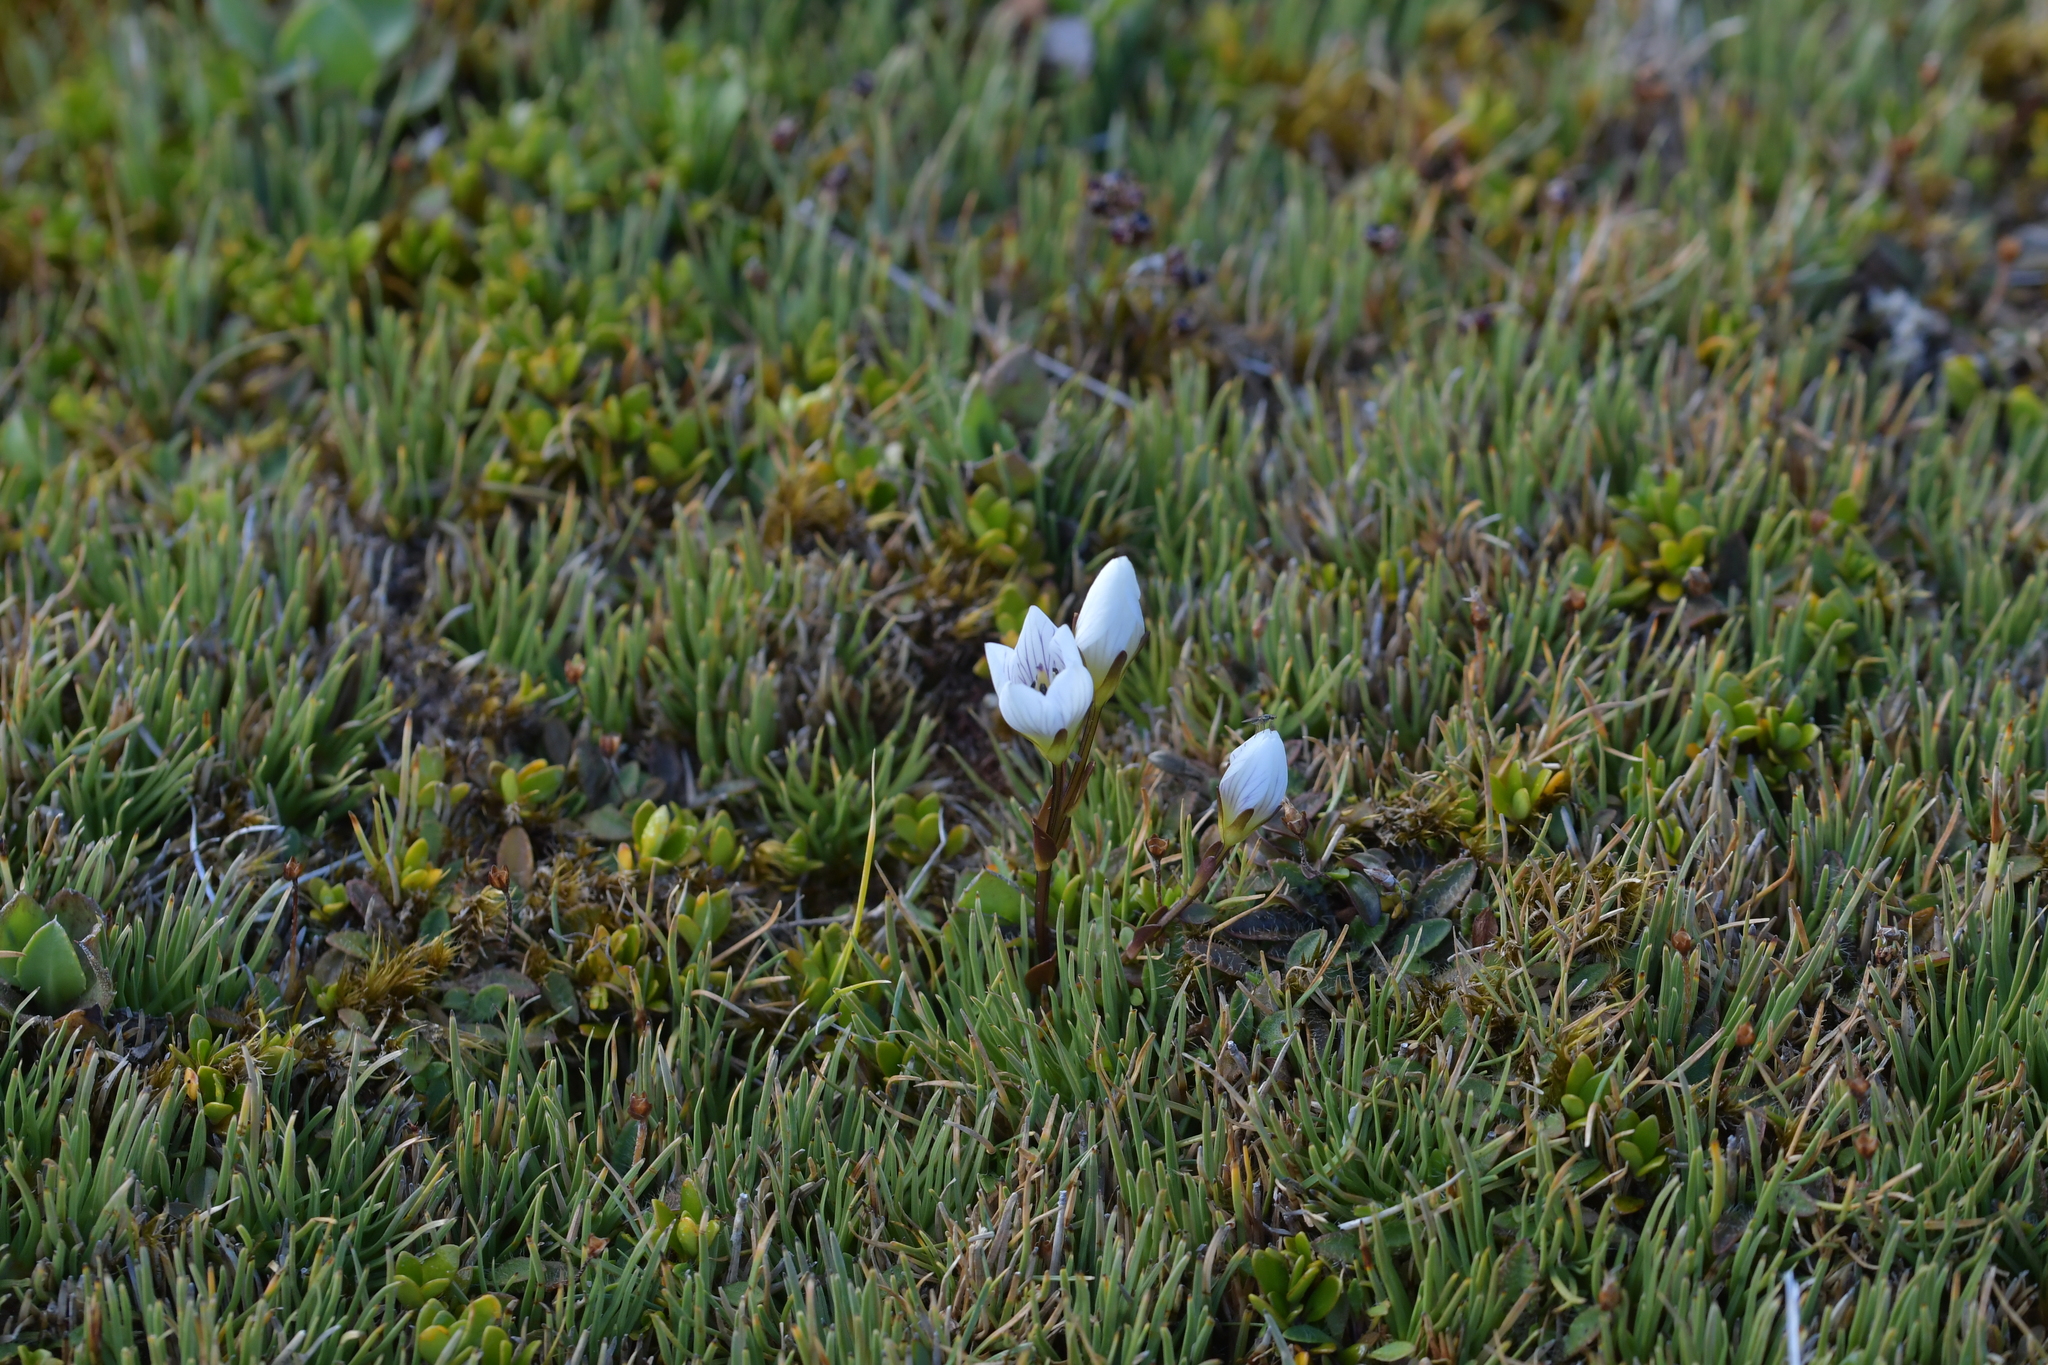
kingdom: Plantae
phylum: Tracheophyta
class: Magnoliopsida
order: Gentianales
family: Gentianaceae
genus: Gentianella
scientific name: Gentianella bellidifolia
